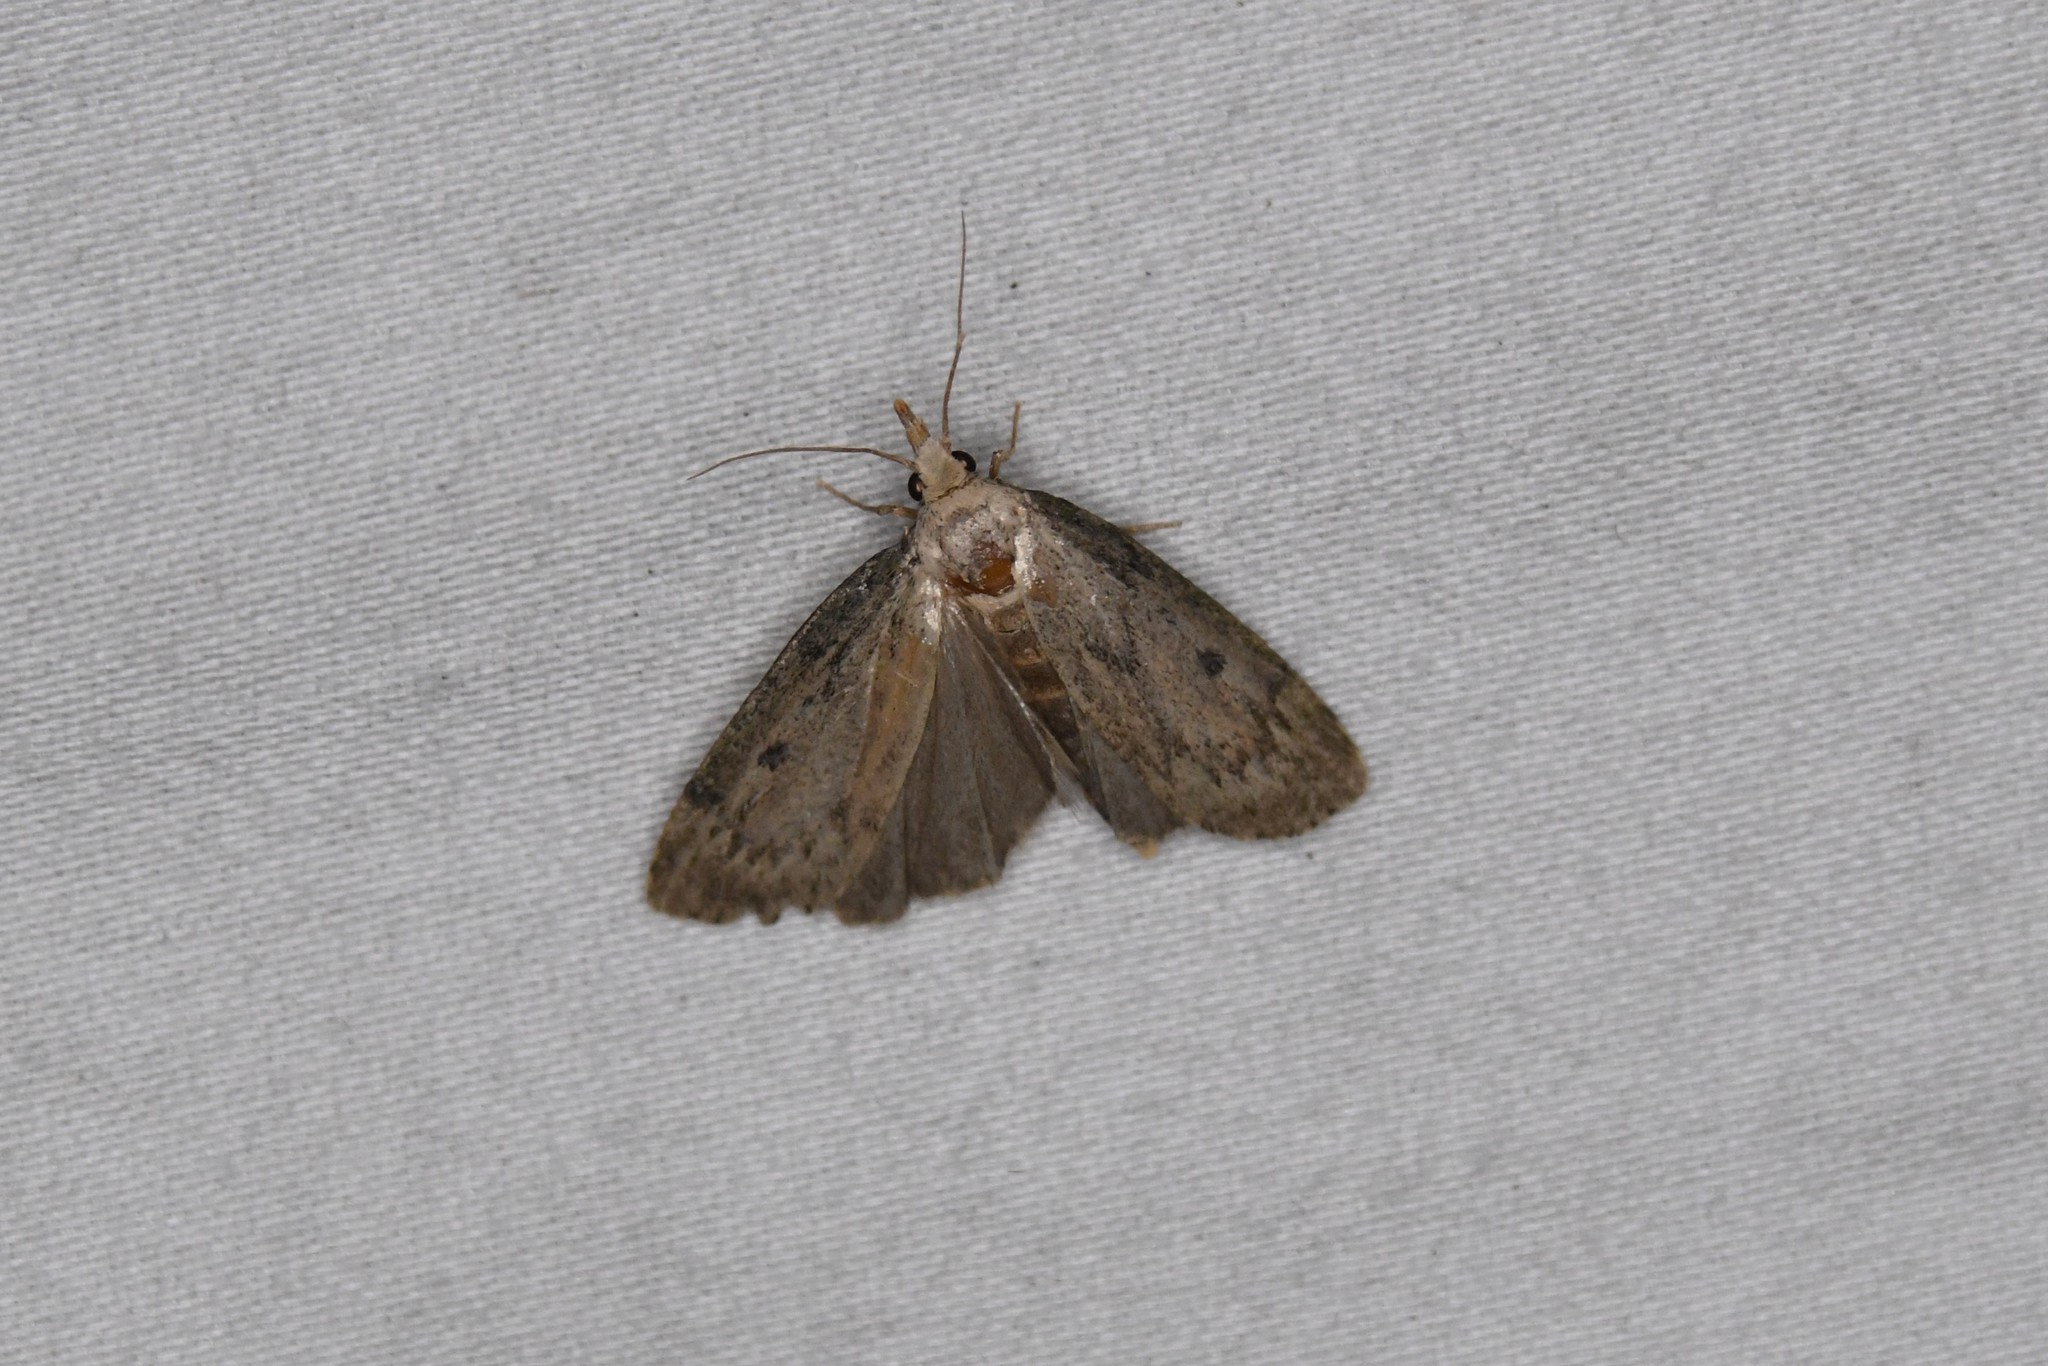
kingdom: Animalia
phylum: Arthropoda
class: Insecta
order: Lepidoptera
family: Pyralidae
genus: Aphomia
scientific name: Aphomia sociella
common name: Bee moth
